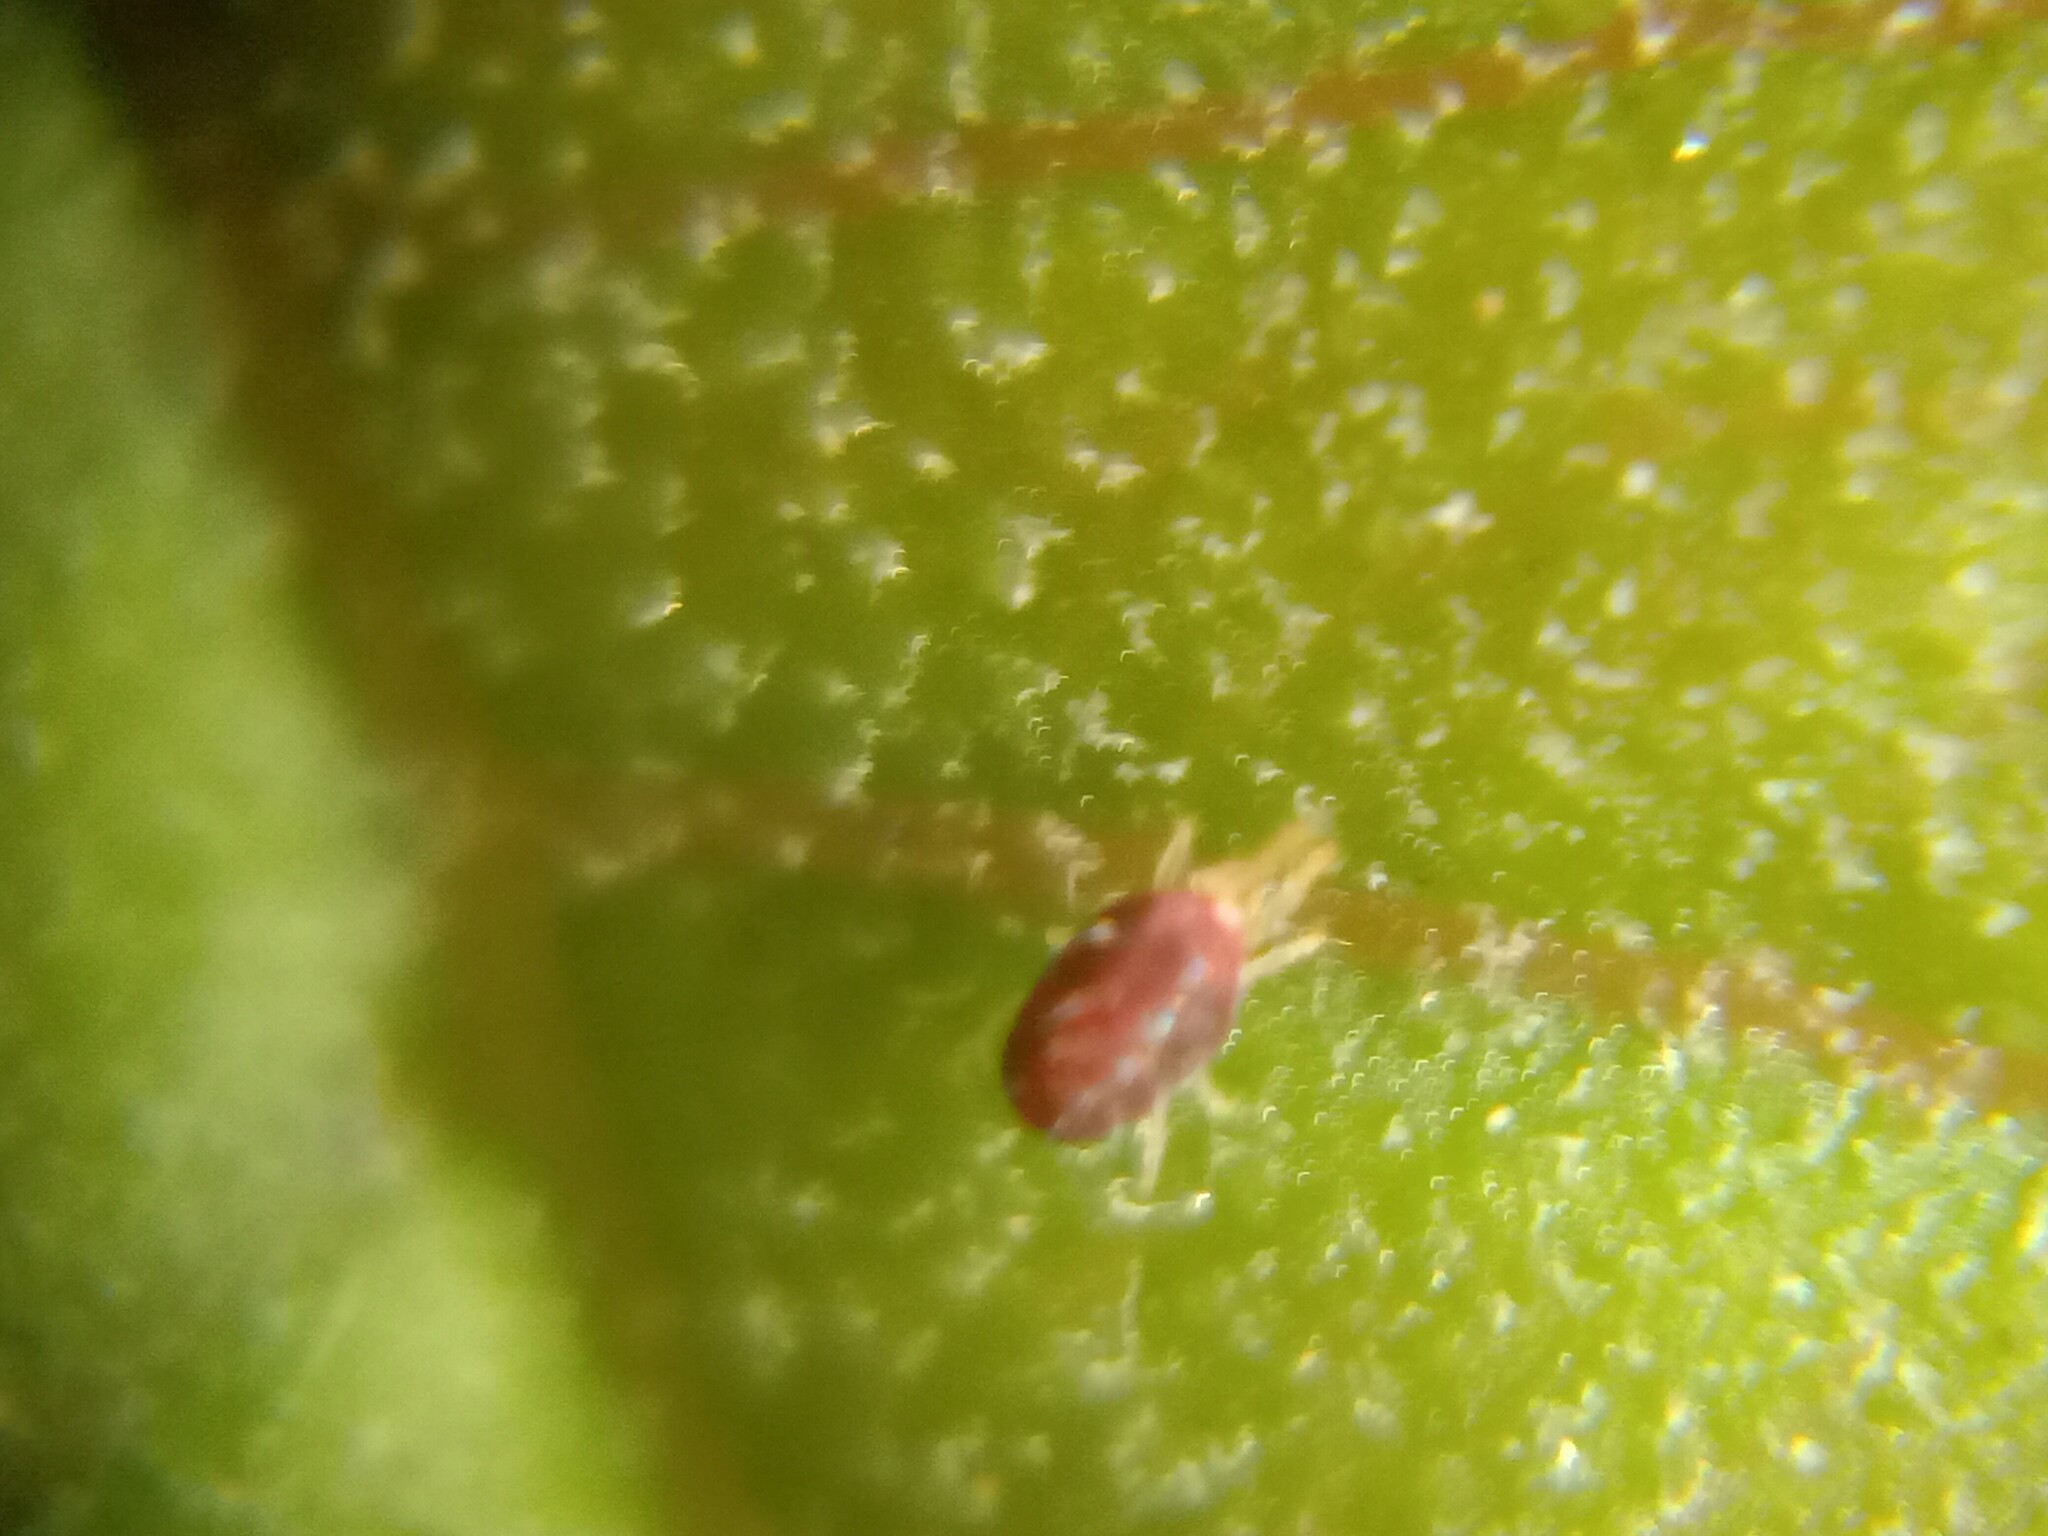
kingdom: Animalia
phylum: Arthropoda
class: Arachnida
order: Trombidiformes
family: Tetranychidae
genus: Tetranychus
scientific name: Tetranychus urticae
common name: Carmine spider mite
